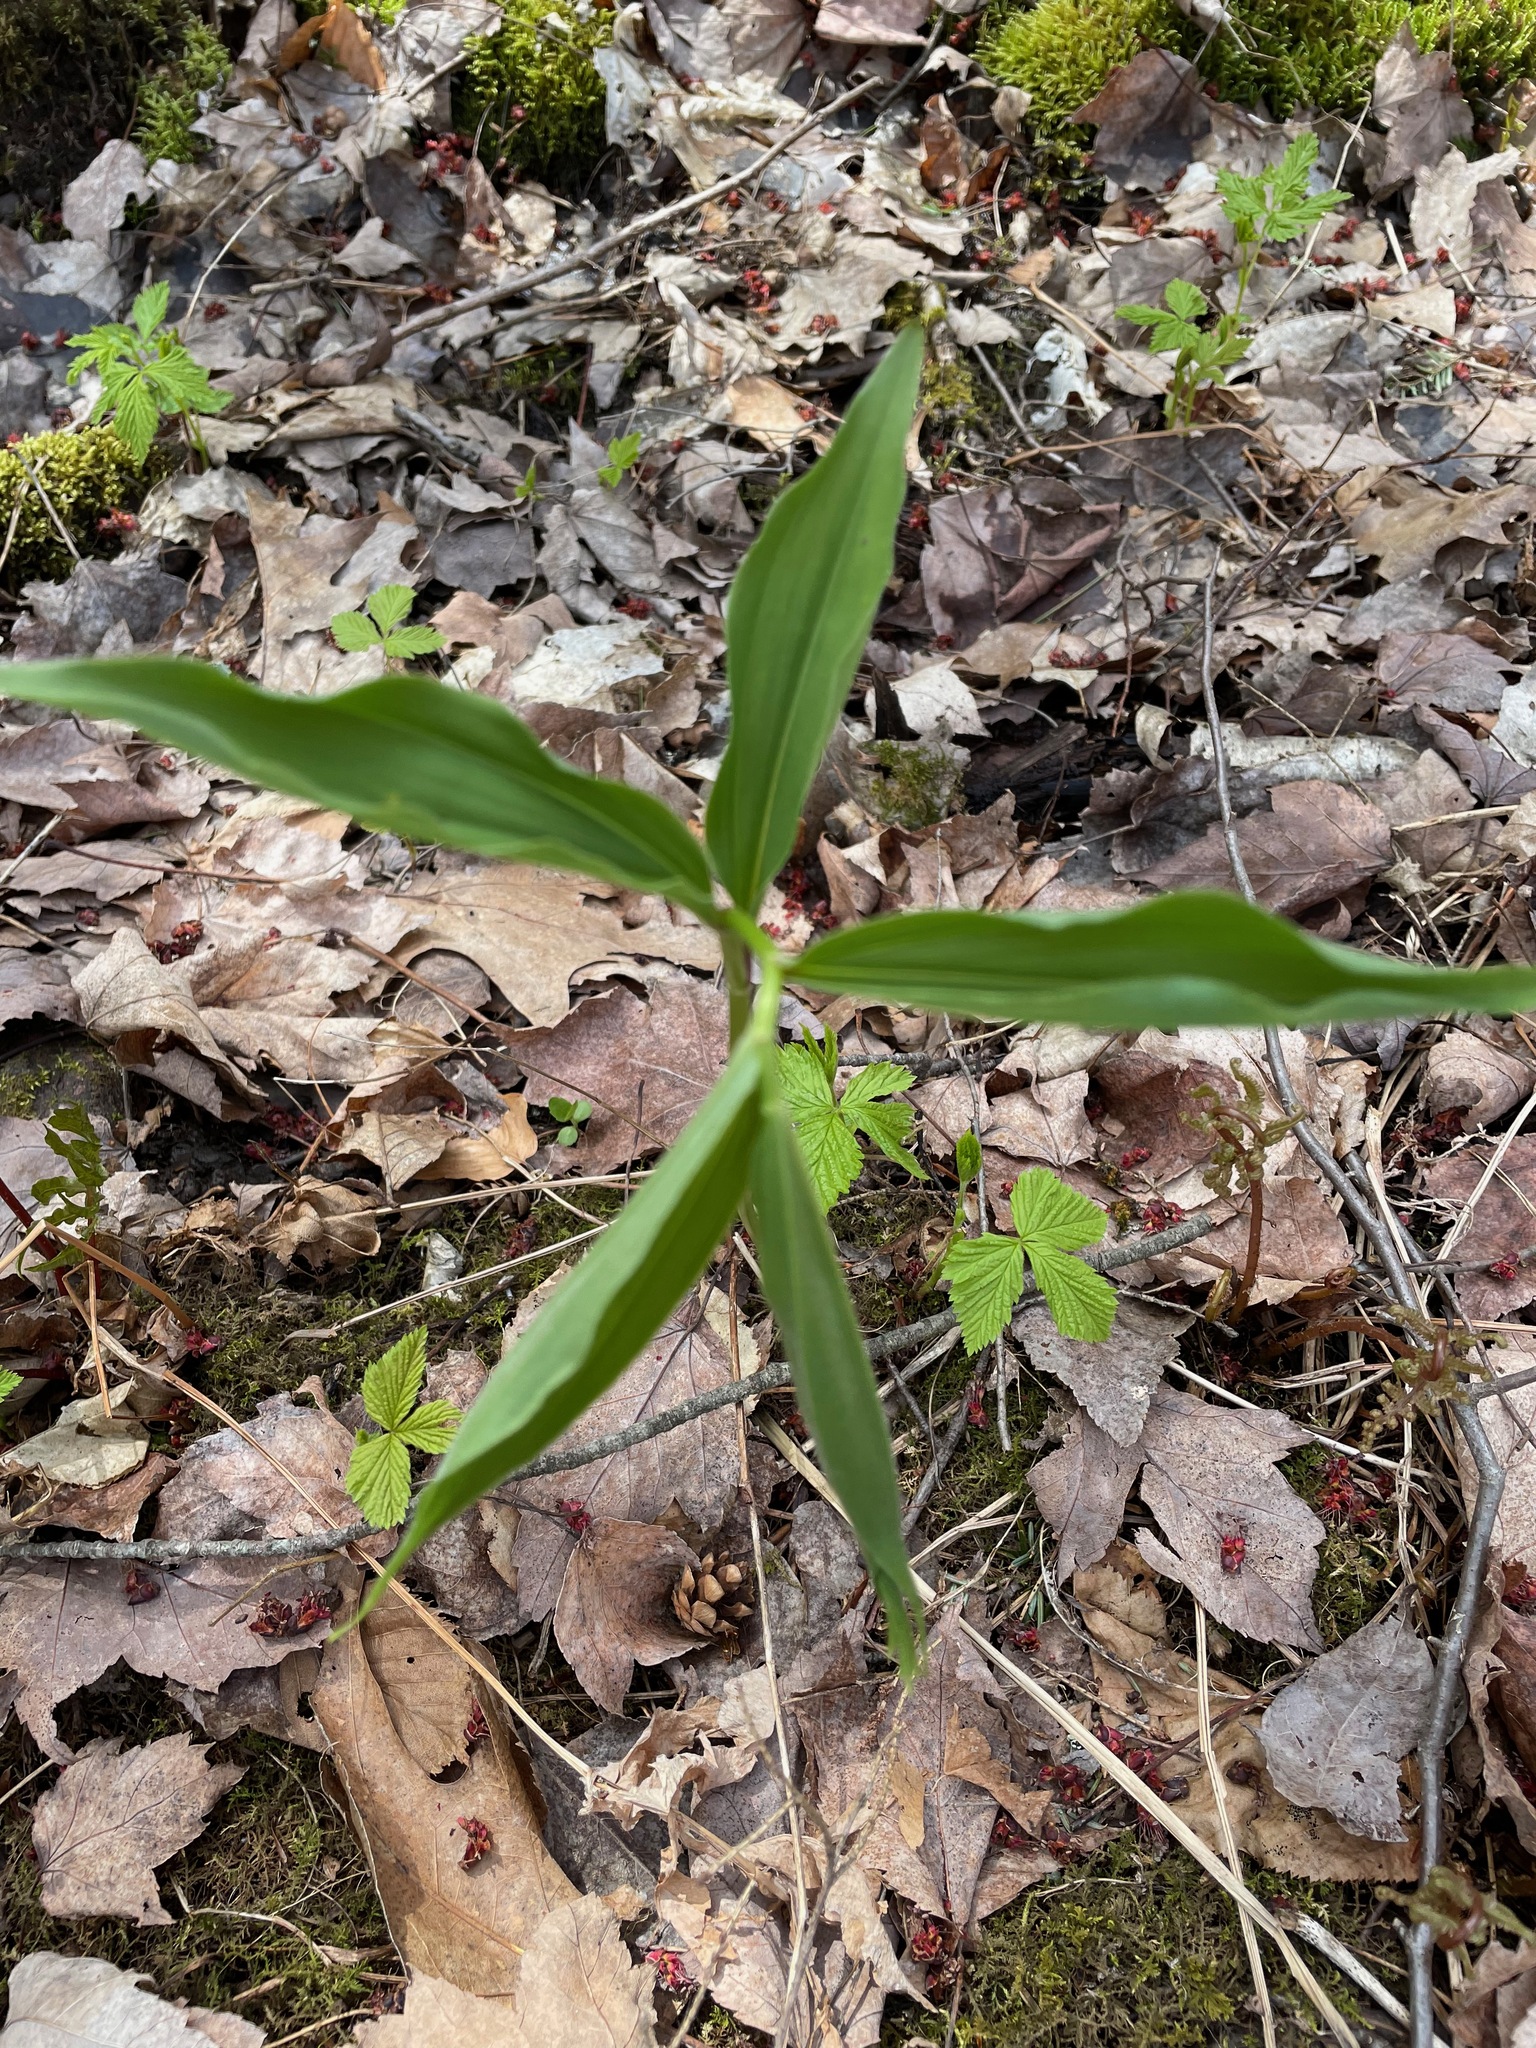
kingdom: Plantae
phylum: Tracheophyta
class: Liliopsida
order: Asparagales
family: Asparagaceae
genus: Maianthemum
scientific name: Maianthemum racemosum
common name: False spikenard
